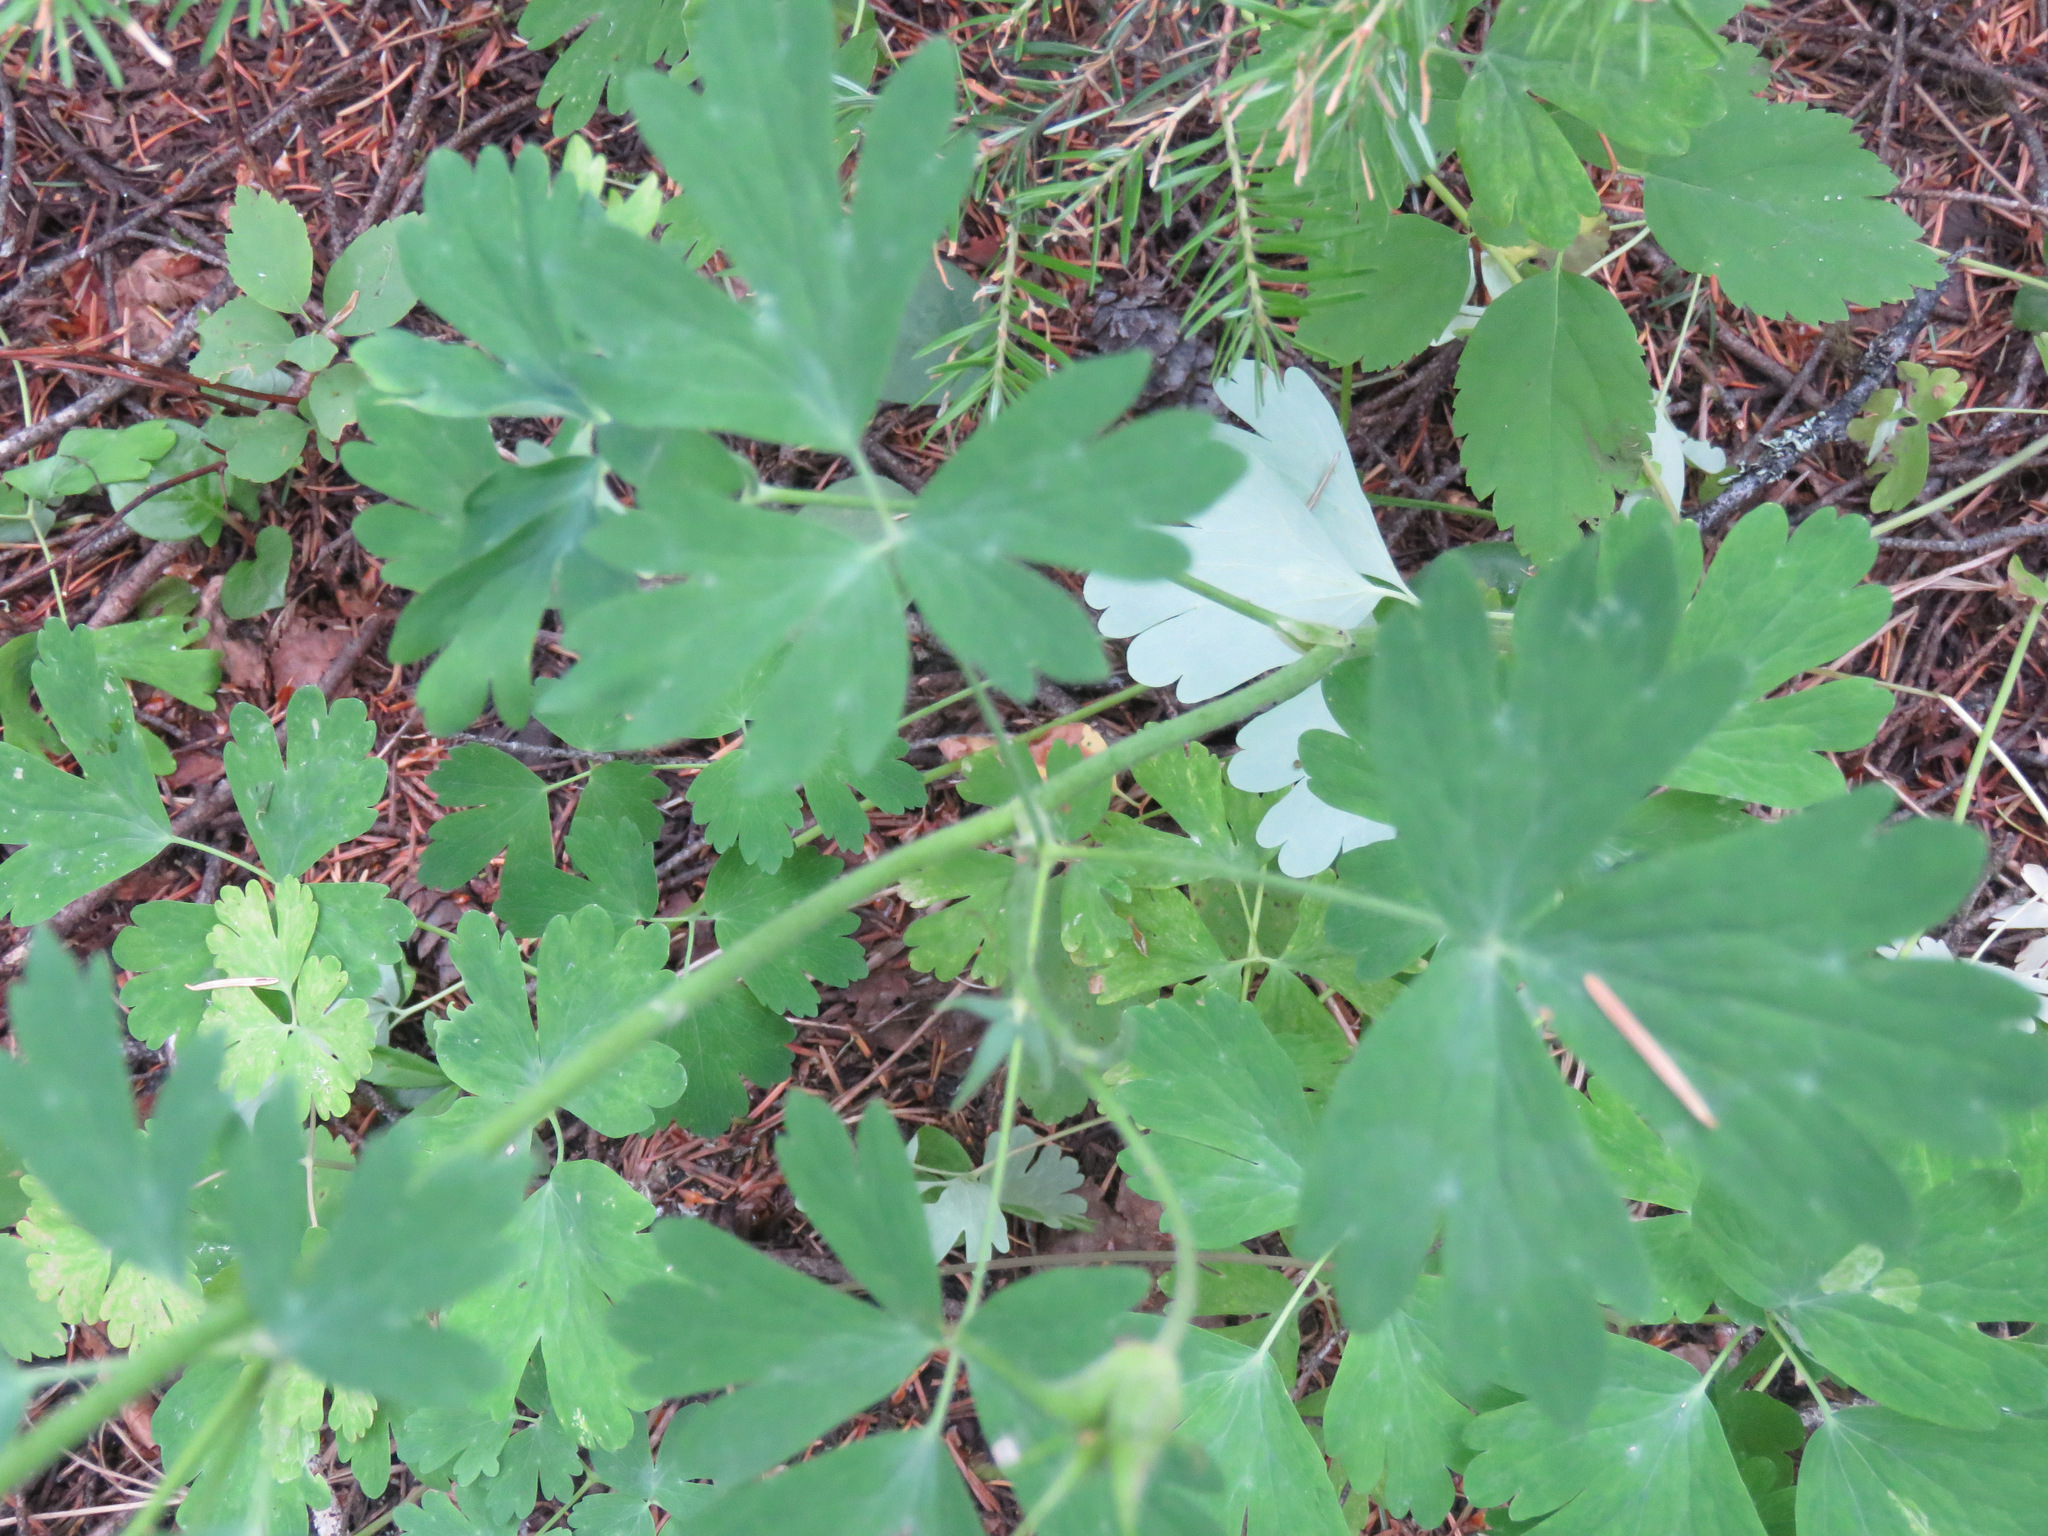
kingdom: Plantae
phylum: Tracheophyta
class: Magnoliopsida
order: Ranunculales
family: Ranunculaceae
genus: Aquilegia
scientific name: Aquilegia formosa
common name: Sitka columbine
